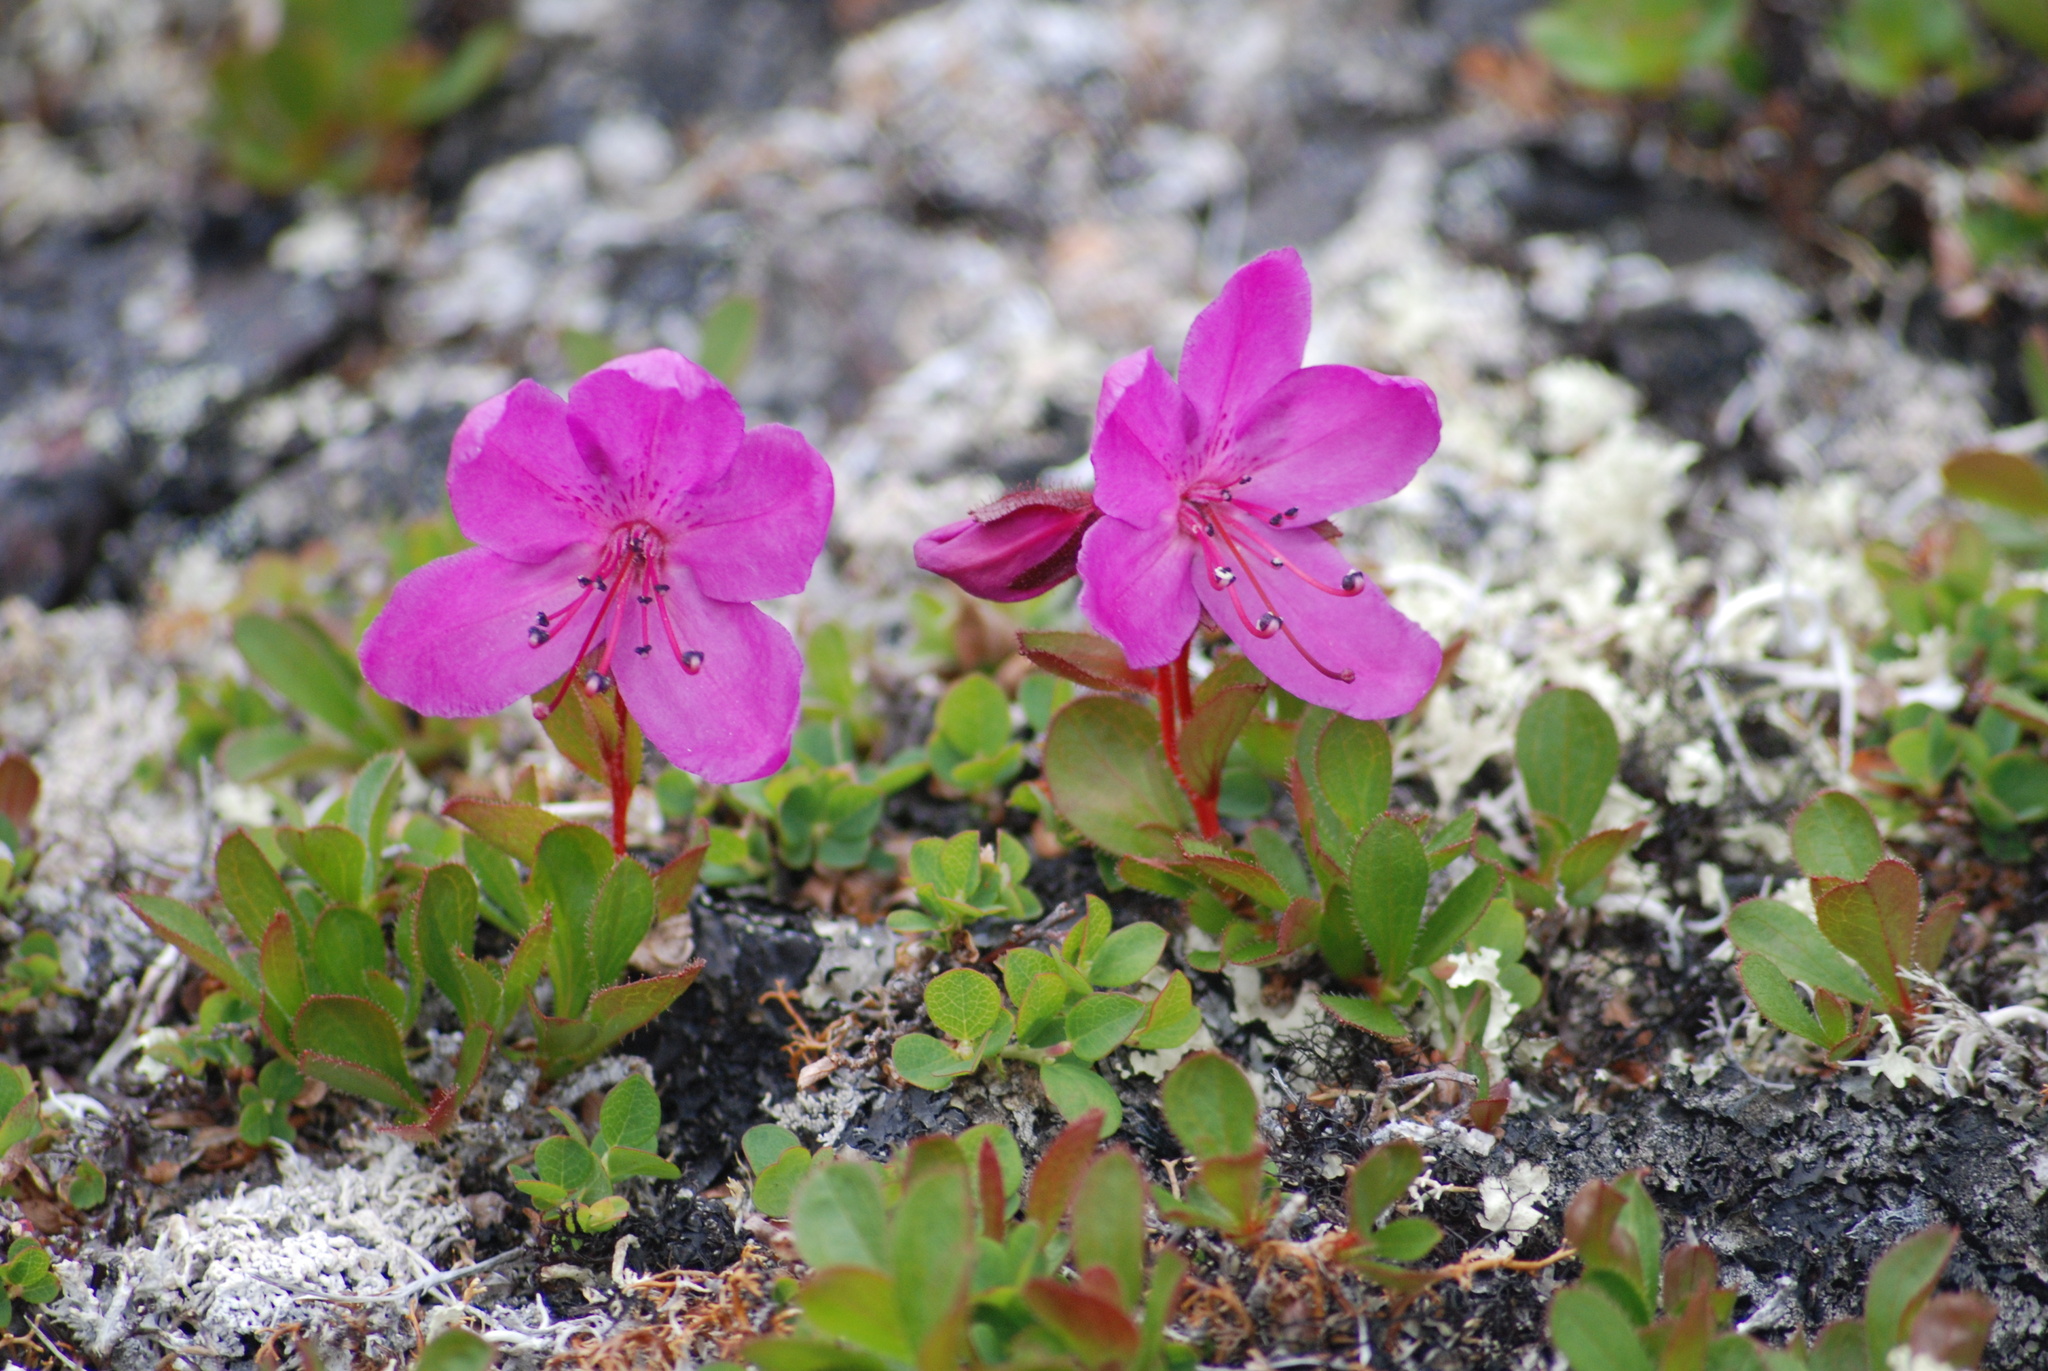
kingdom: Plantae
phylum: Tracheophyta
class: Magnoliopsida
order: Ericales
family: Ericaceae
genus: Rhododendron
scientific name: Rhododendron camtschaticum
